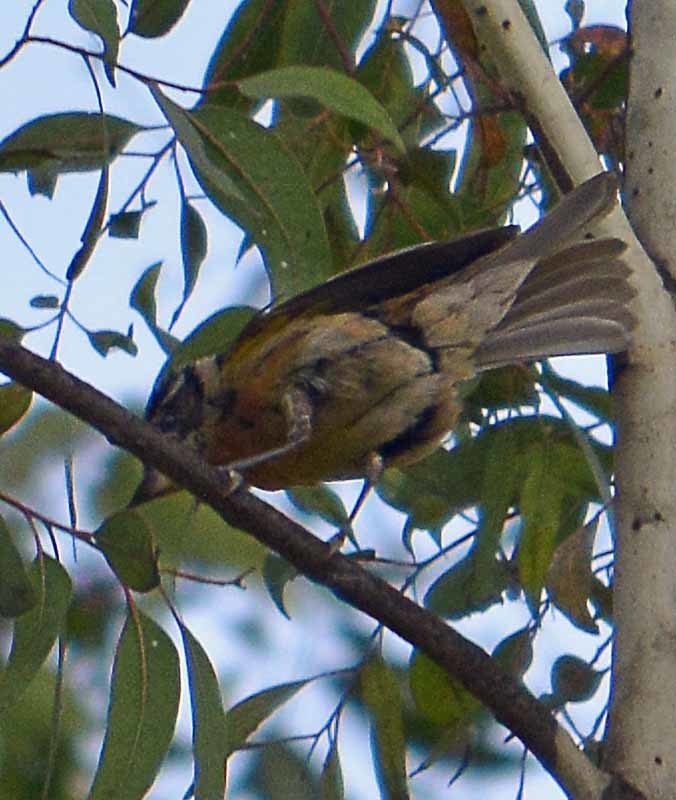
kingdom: Animalia
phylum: Chordata
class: Aves
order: Passeriformes
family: Cardinalidae
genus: Pheucticus
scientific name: Pheucticus melanocephalus
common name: Black-headed grosbeak
